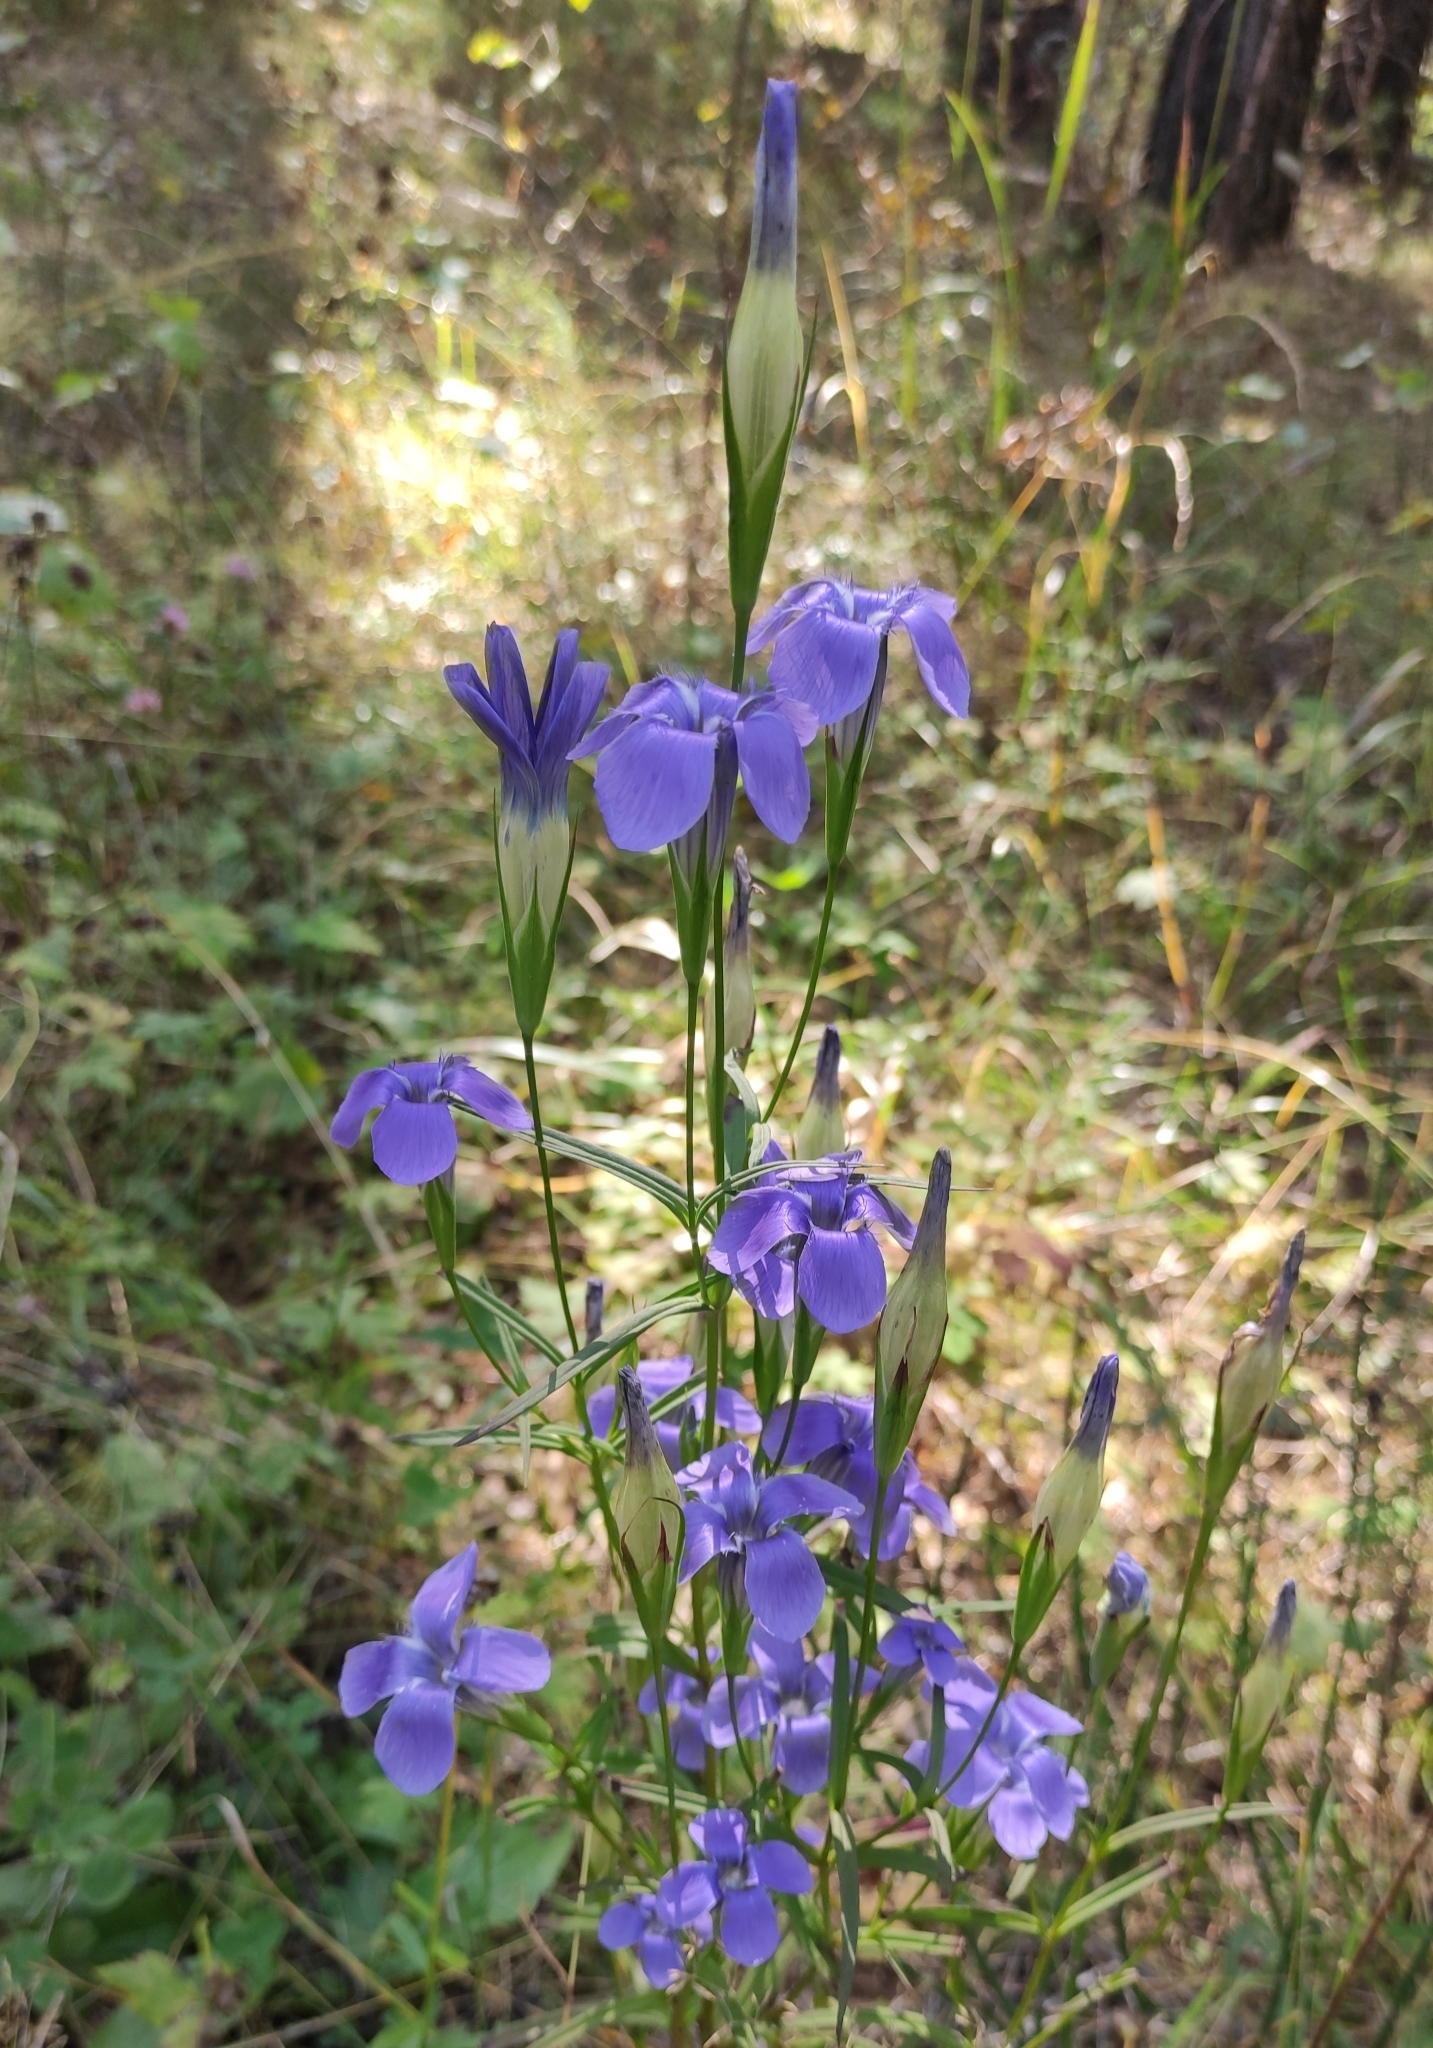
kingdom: Plantae
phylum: Tracheophyta
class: Magnoliopsida
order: Gentianales
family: Gentianaceae
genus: Gentianopsis
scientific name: Gentianopsis barbata
